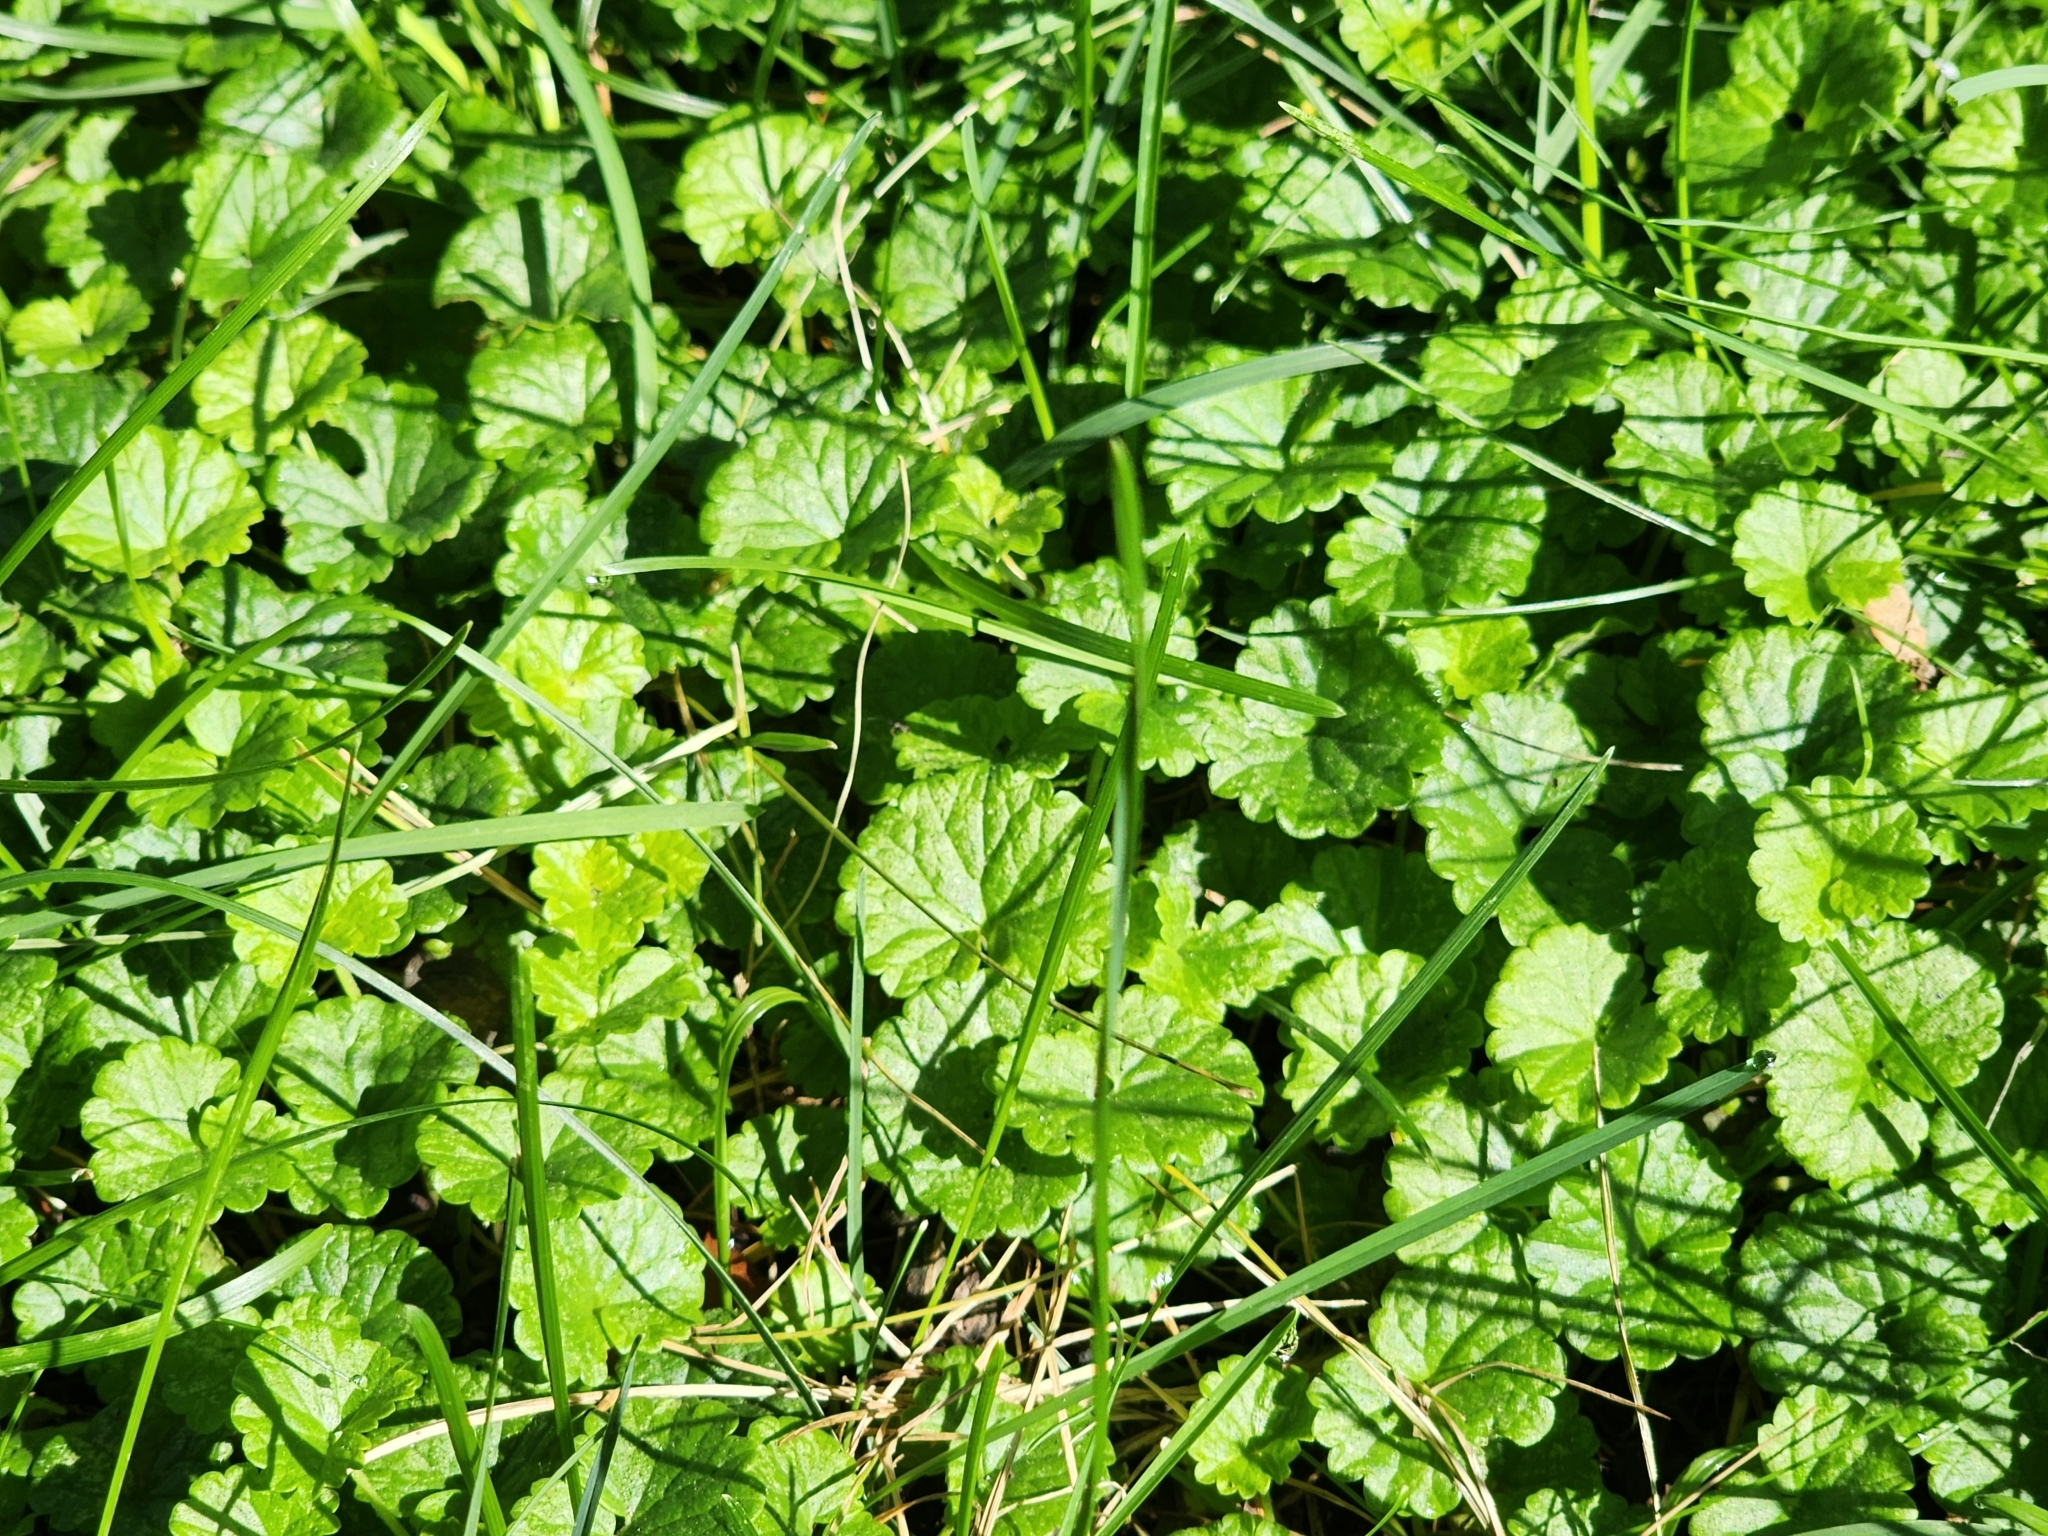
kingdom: Plantae
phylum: Tracheophyta
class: Magnoliopsida
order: Lamiales
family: Lamiaceae
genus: Glechoma
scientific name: Glechoma hederacea
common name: Ground ivy
